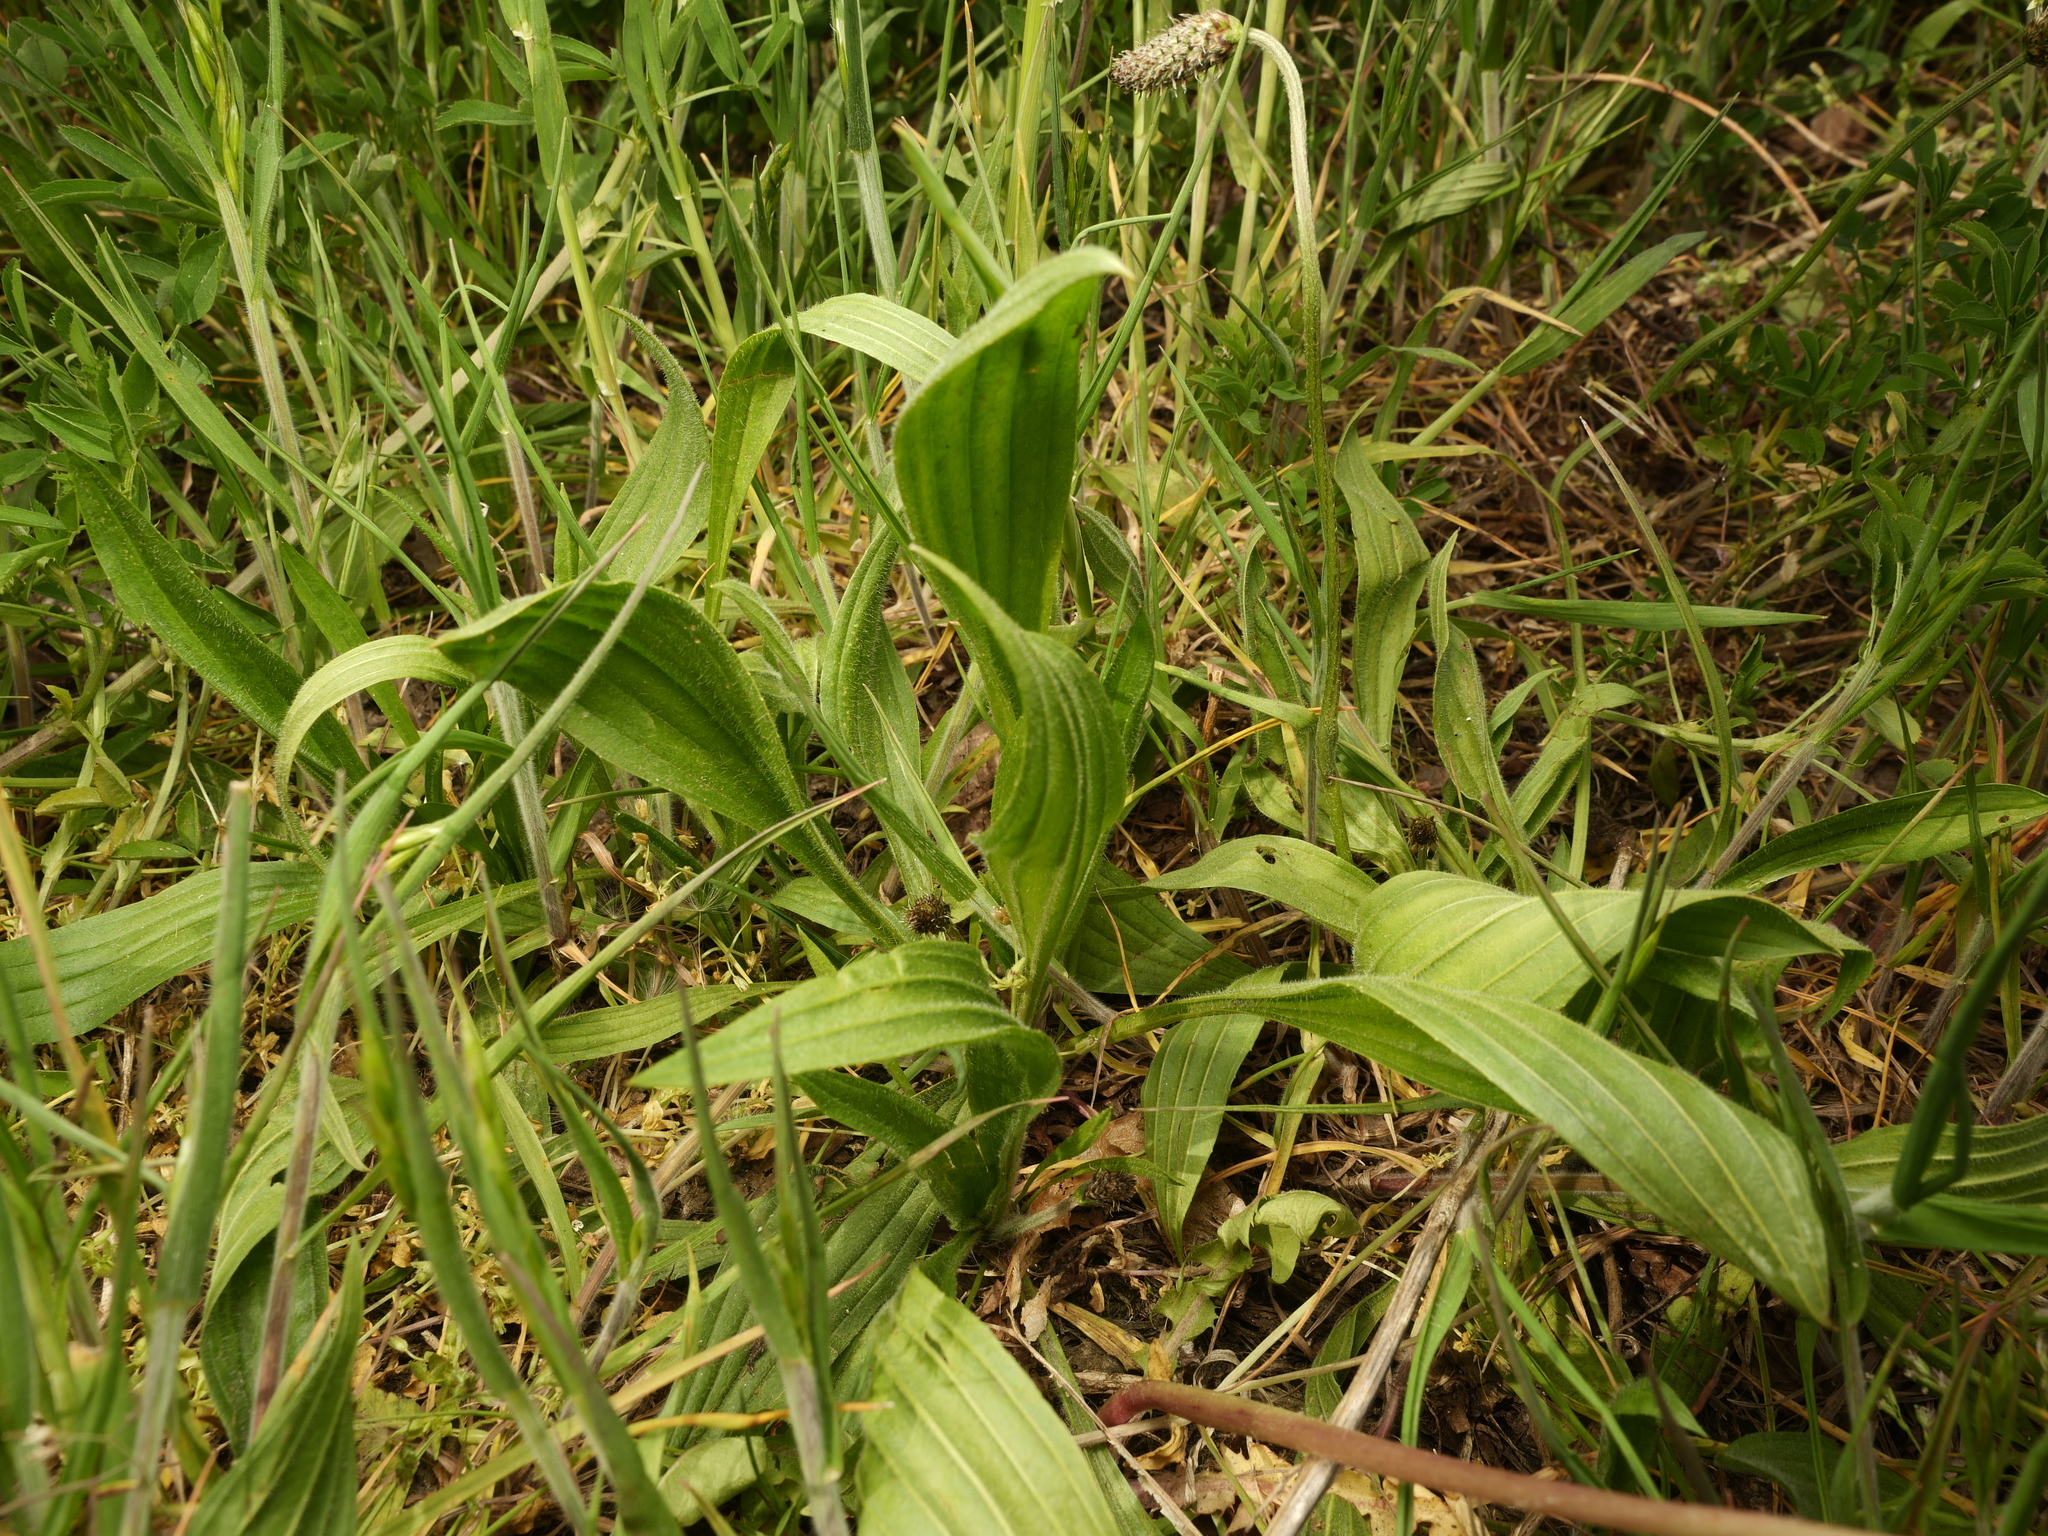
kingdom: Plantae
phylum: Tracheophyta
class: Magnoliopsida
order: Lamiales
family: Plantaginaceae
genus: Plantago
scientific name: Plantago lanceolata
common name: Ribwort plantain
